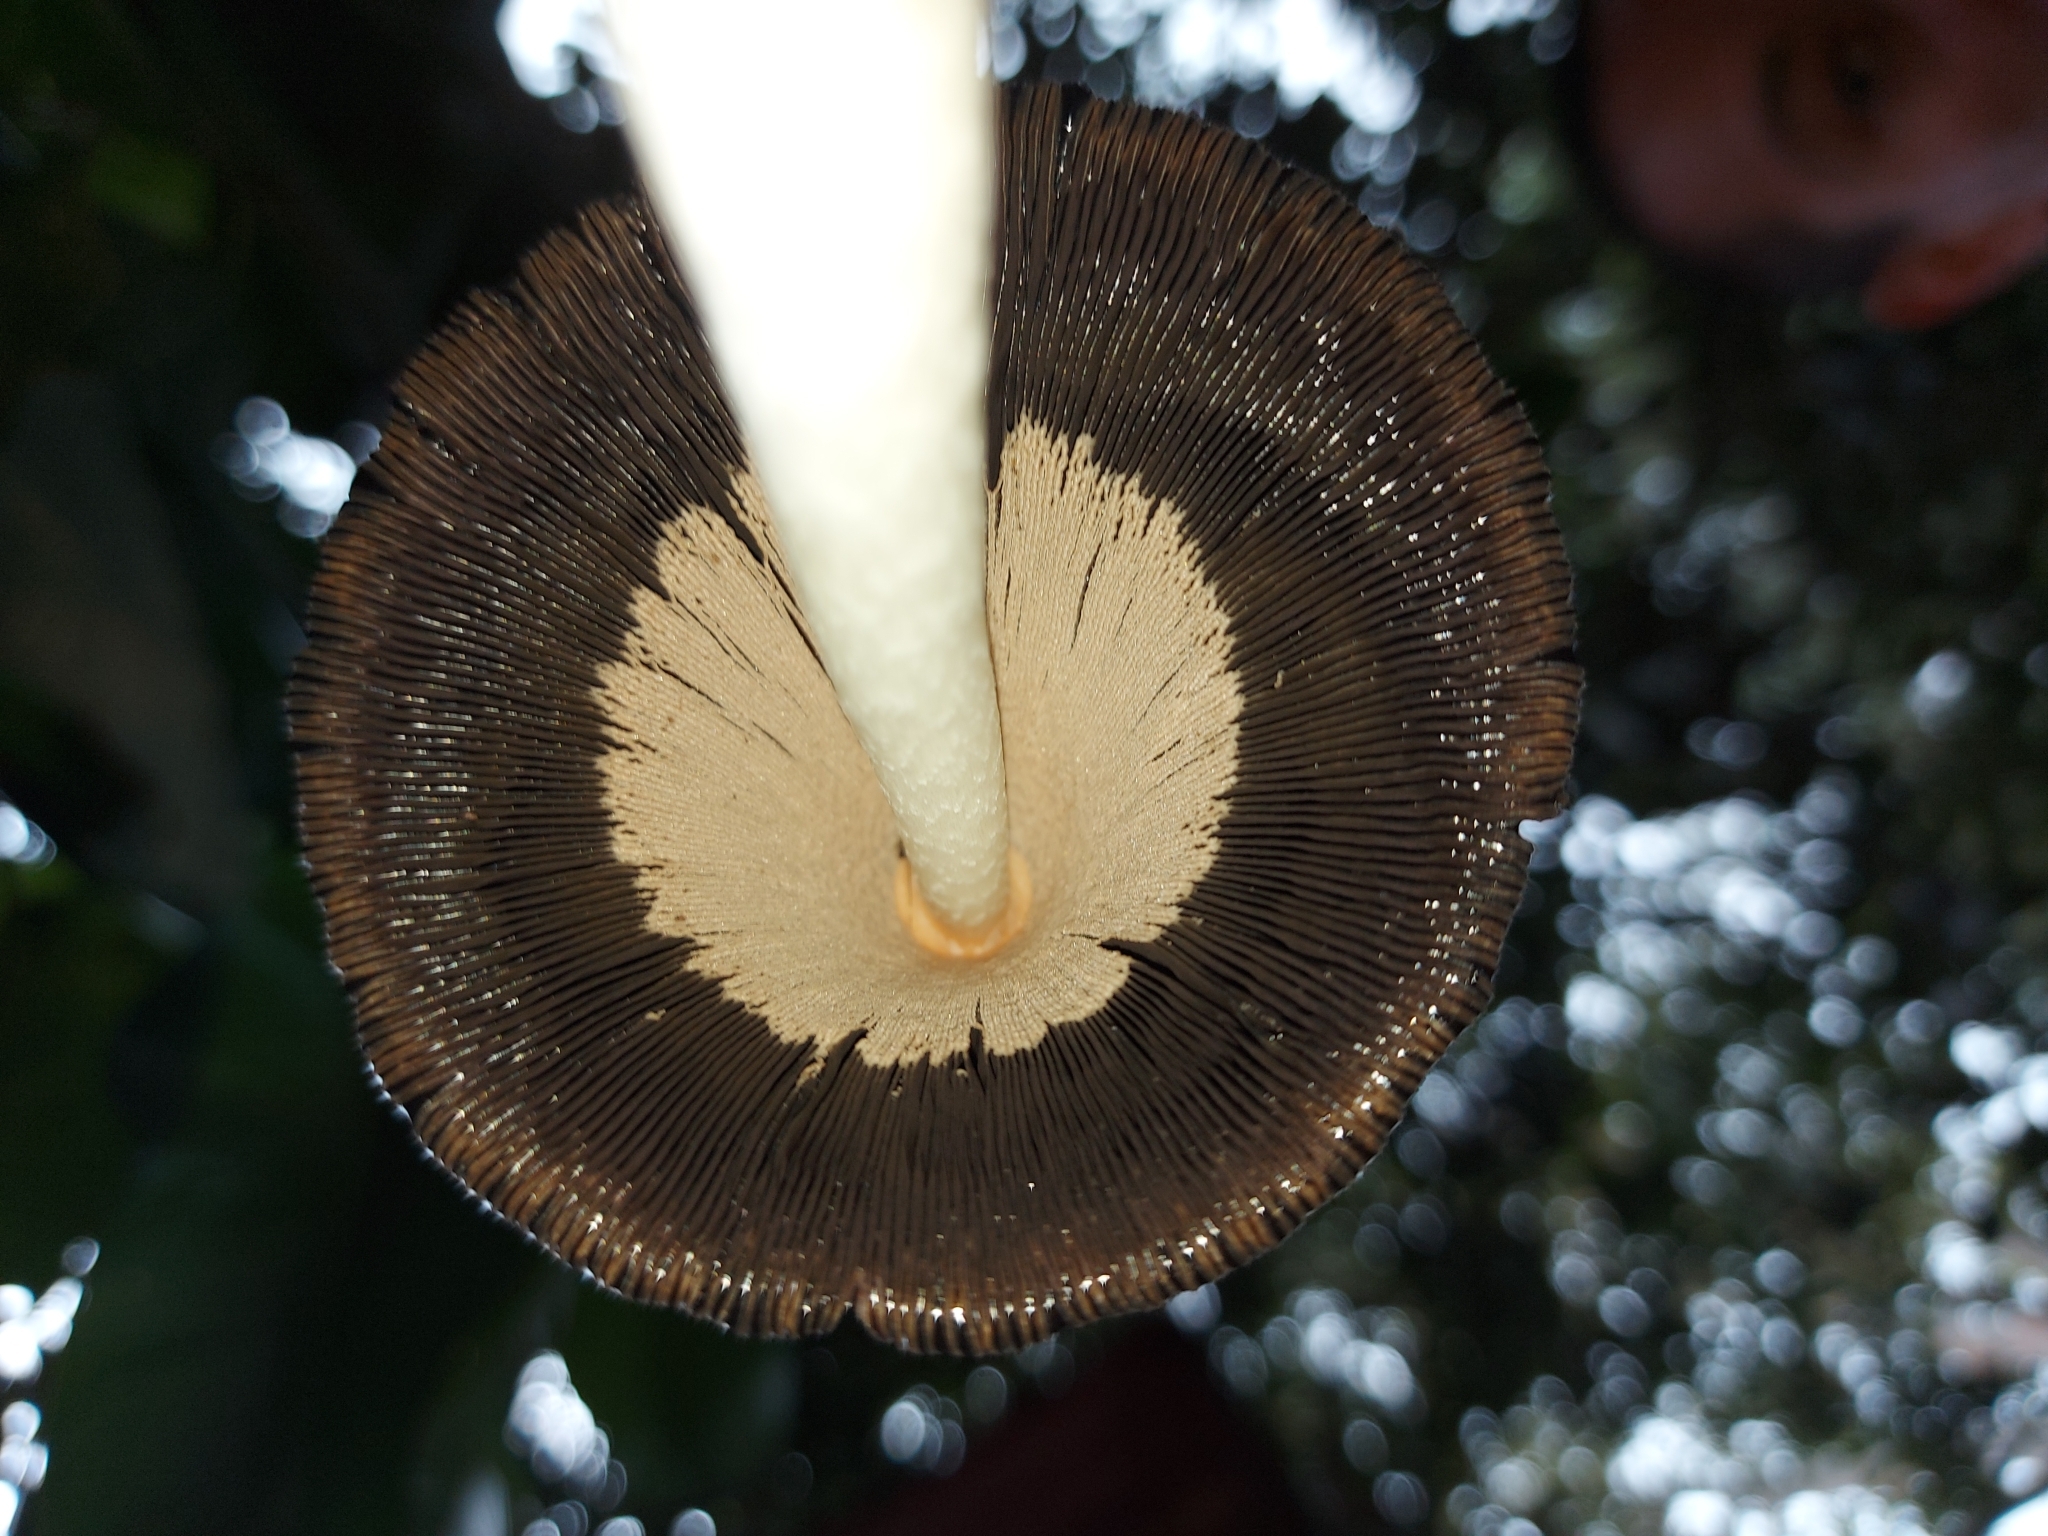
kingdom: Fungi
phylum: Basidiomycota
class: Agaricomycetes
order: Agaricales
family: Agaricaceae
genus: Coprinus
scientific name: Coprinus comatus
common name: Lawyer's wig
